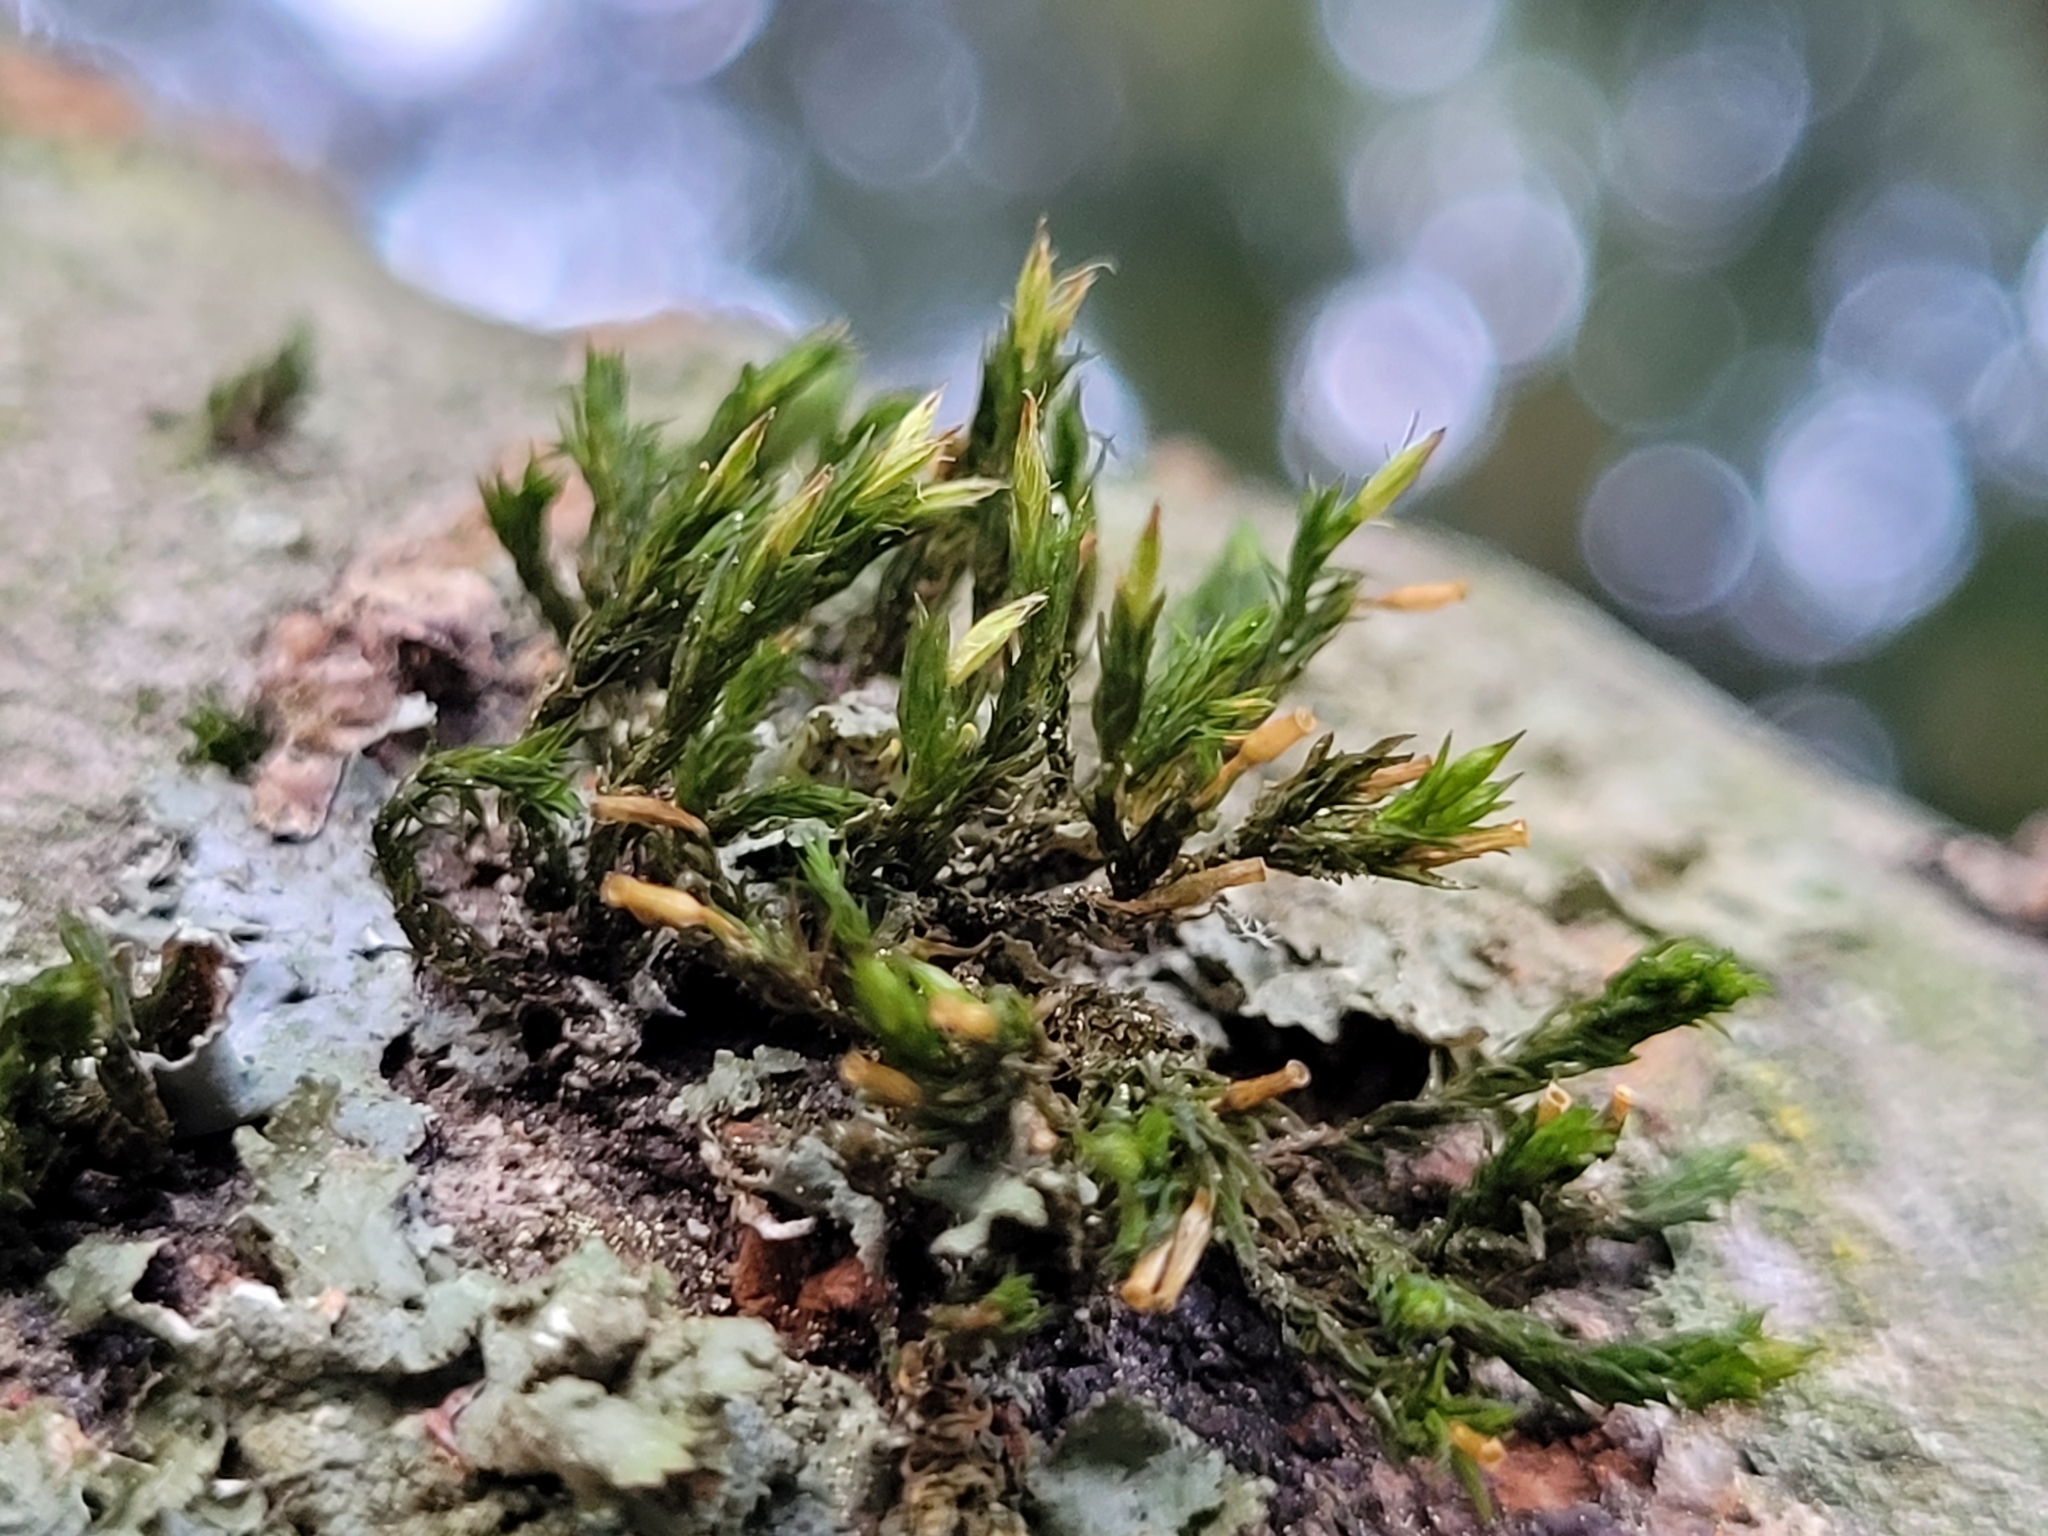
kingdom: Plantae
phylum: Bryophyta
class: Bryopsida
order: Orthotrichales
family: Orthotrichaceae
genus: Lewinskya
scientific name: Lewinskya speciosa
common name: Showy bristle moss
